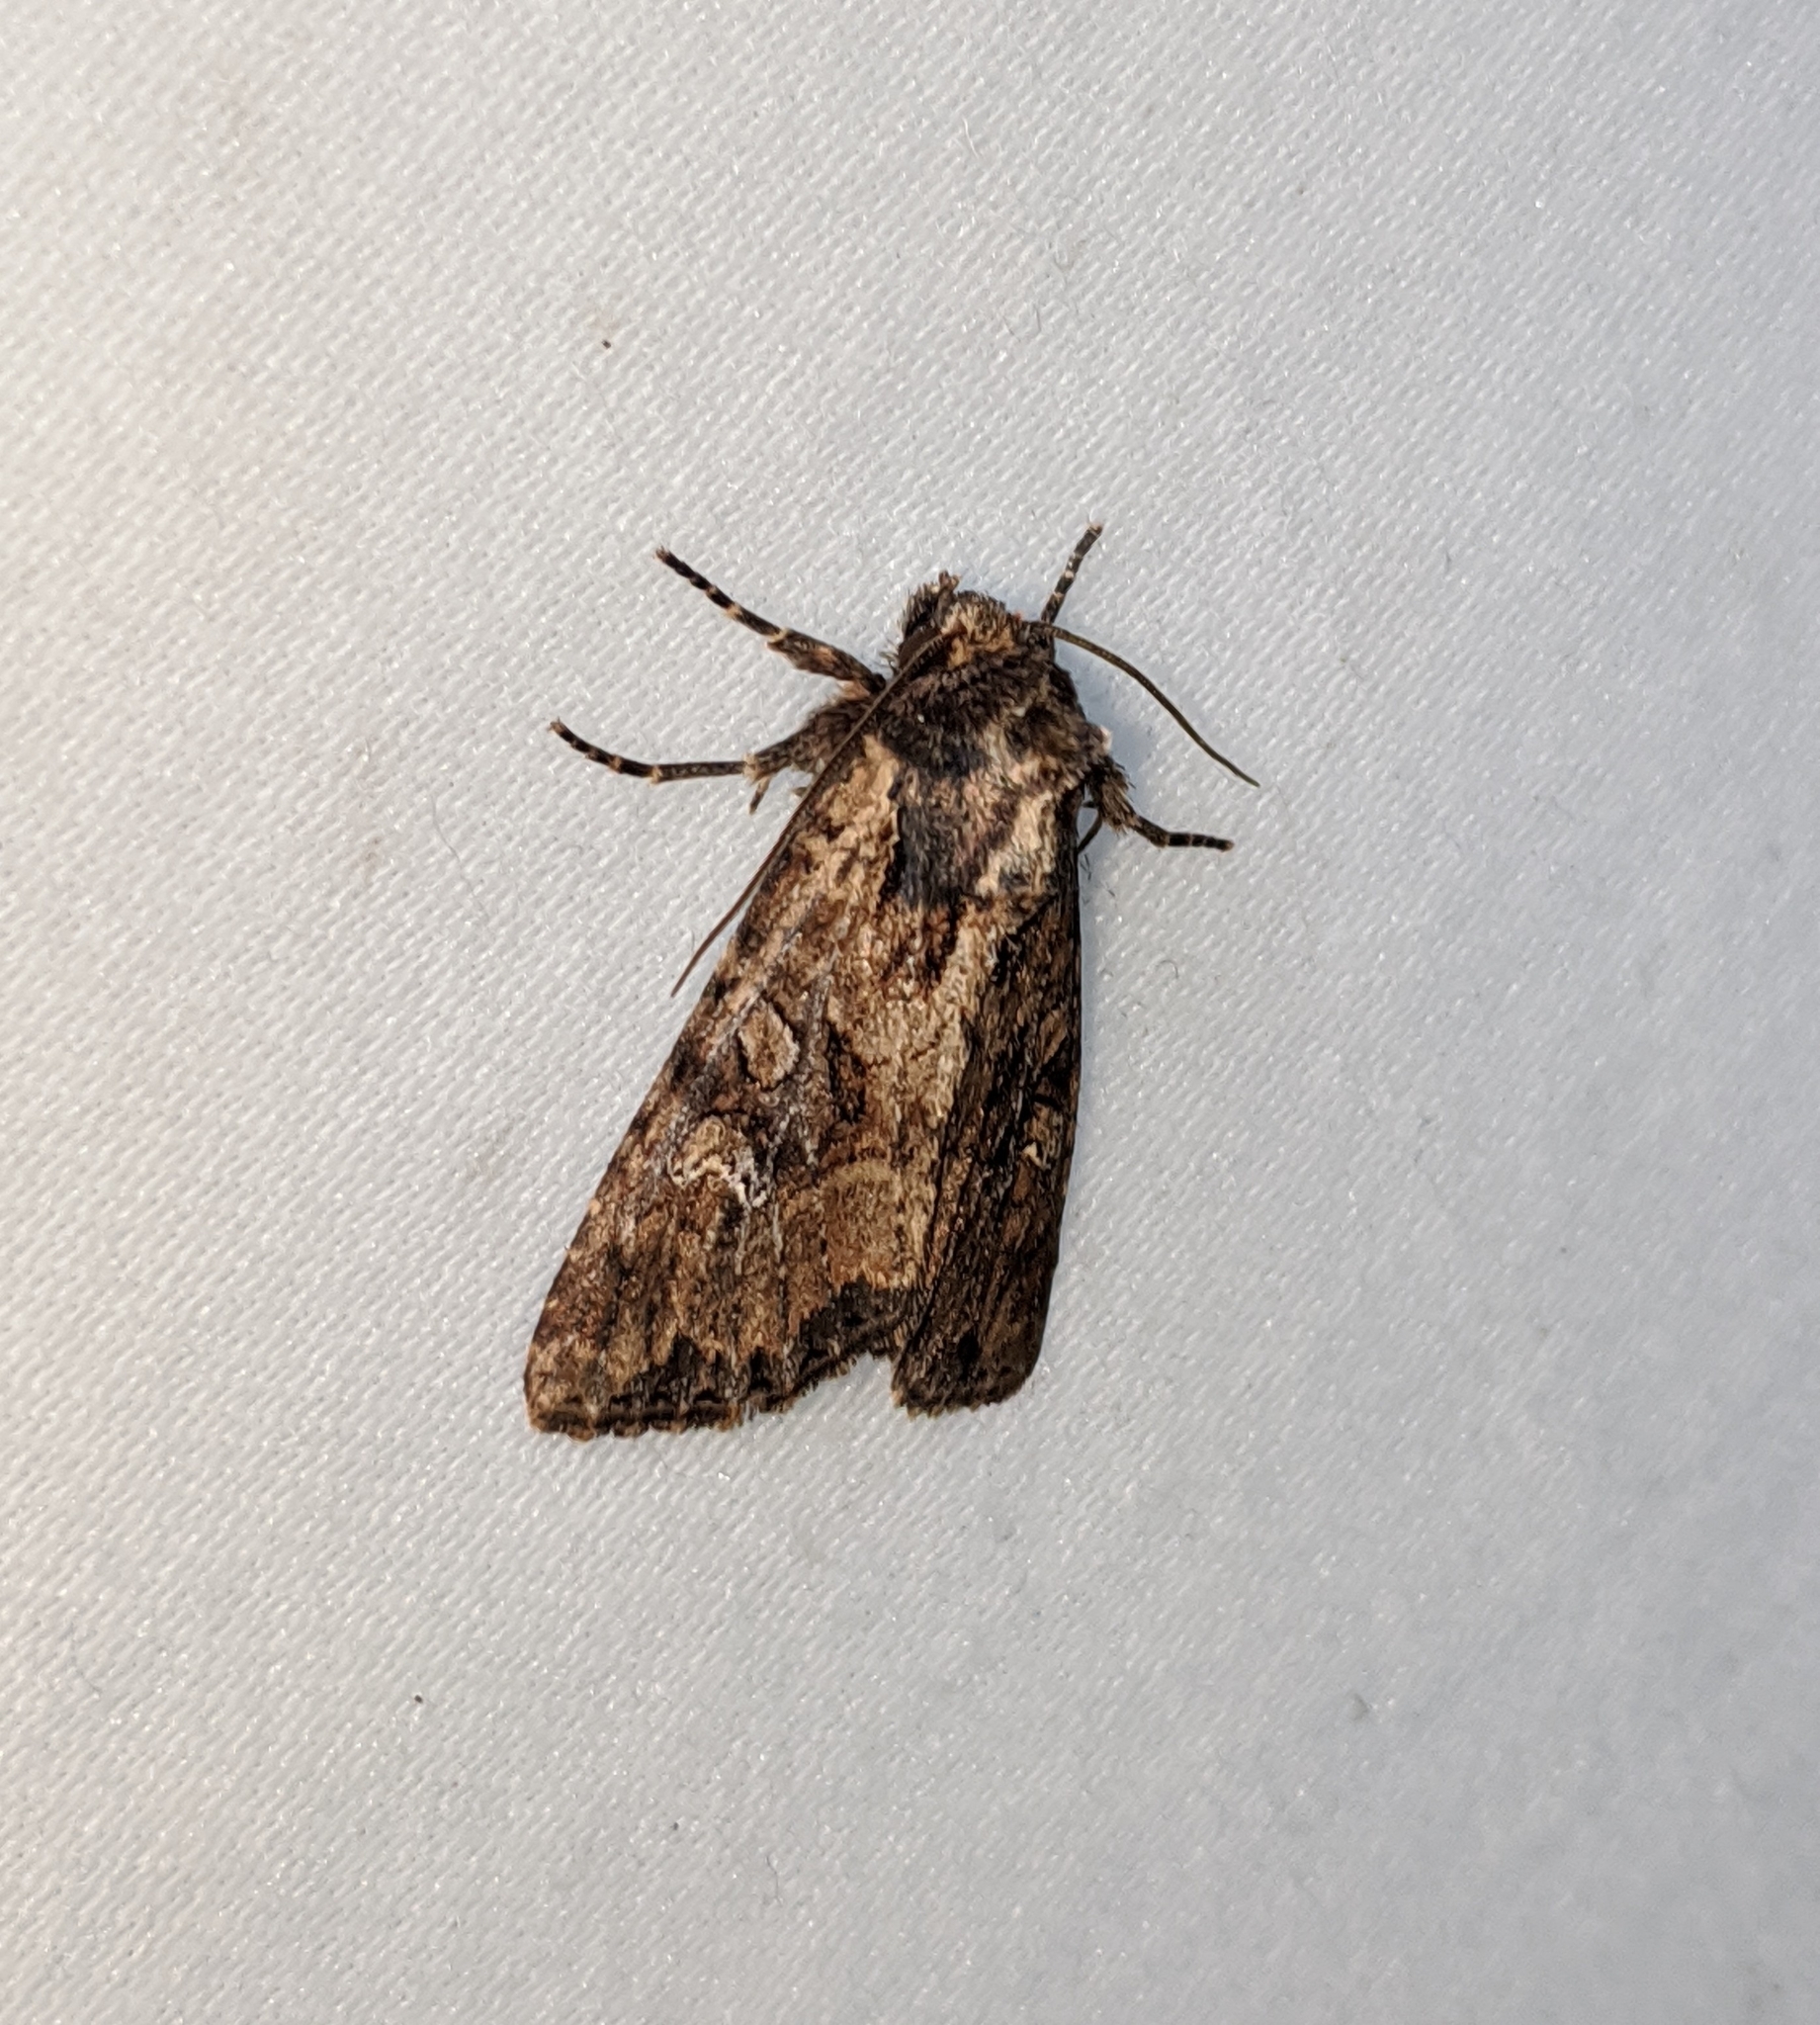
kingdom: Animalia
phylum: Arthropoda
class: Insecta
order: Lepidoptera
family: Noctuidae
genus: Apamea
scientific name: Apamea unanimis
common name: Small clouded brindle
